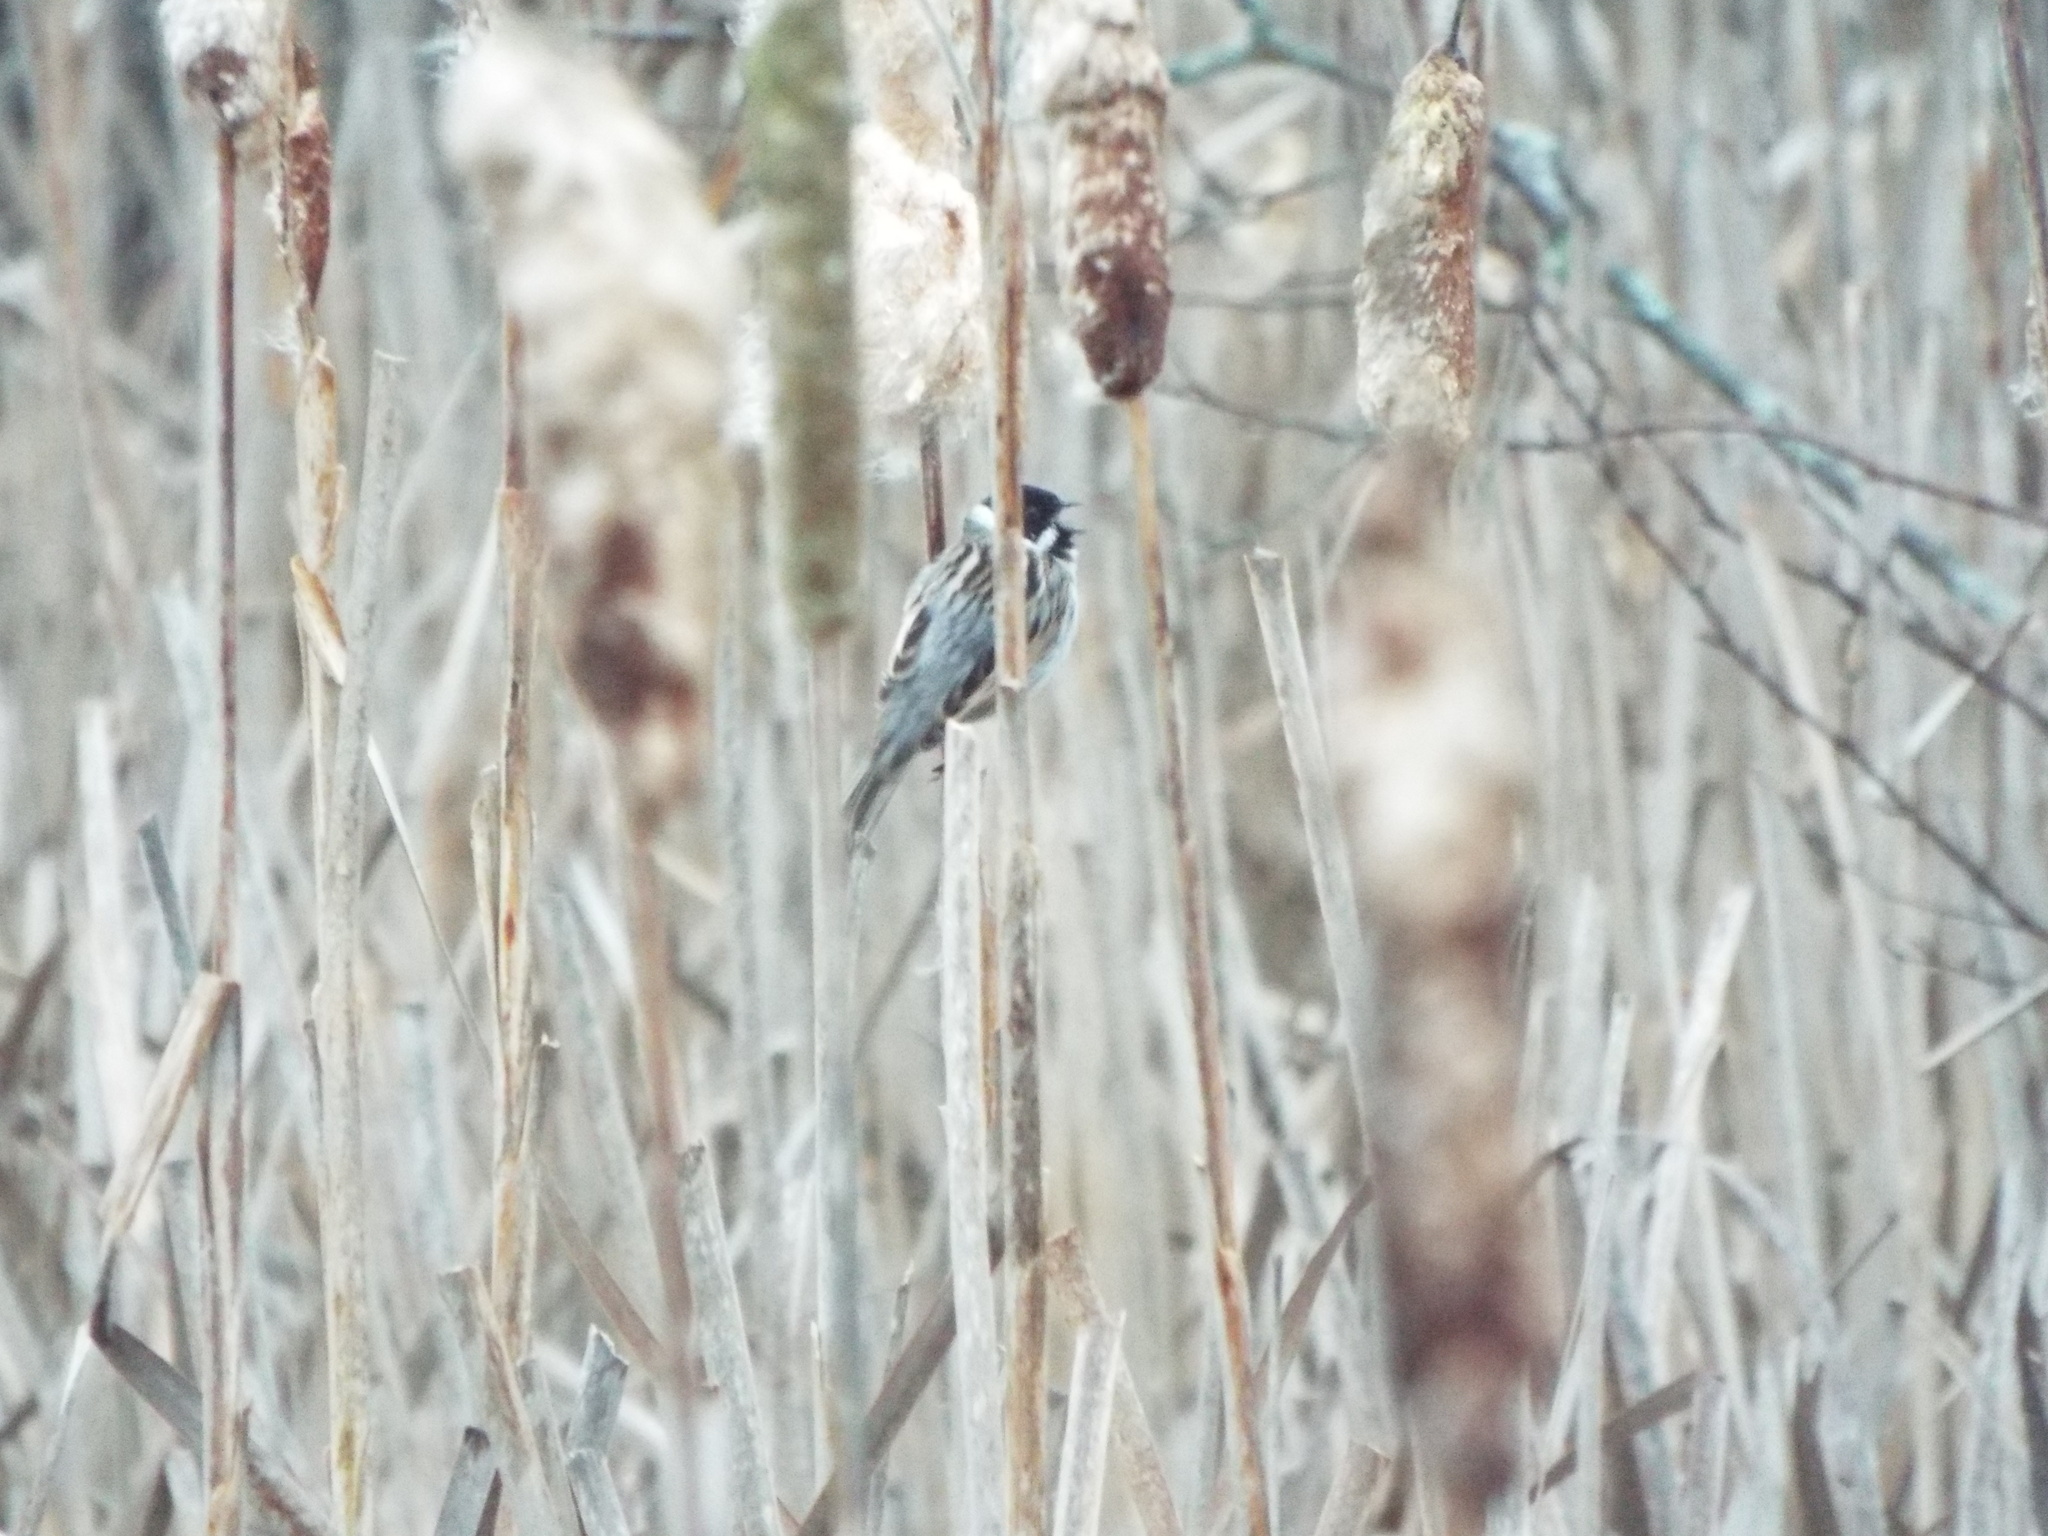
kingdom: Animalia
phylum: Chordata
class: Aves
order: Passeriformes
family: Emberizidae
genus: Emberiza
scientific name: Emberiza schoeniclus
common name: Reed bunting
